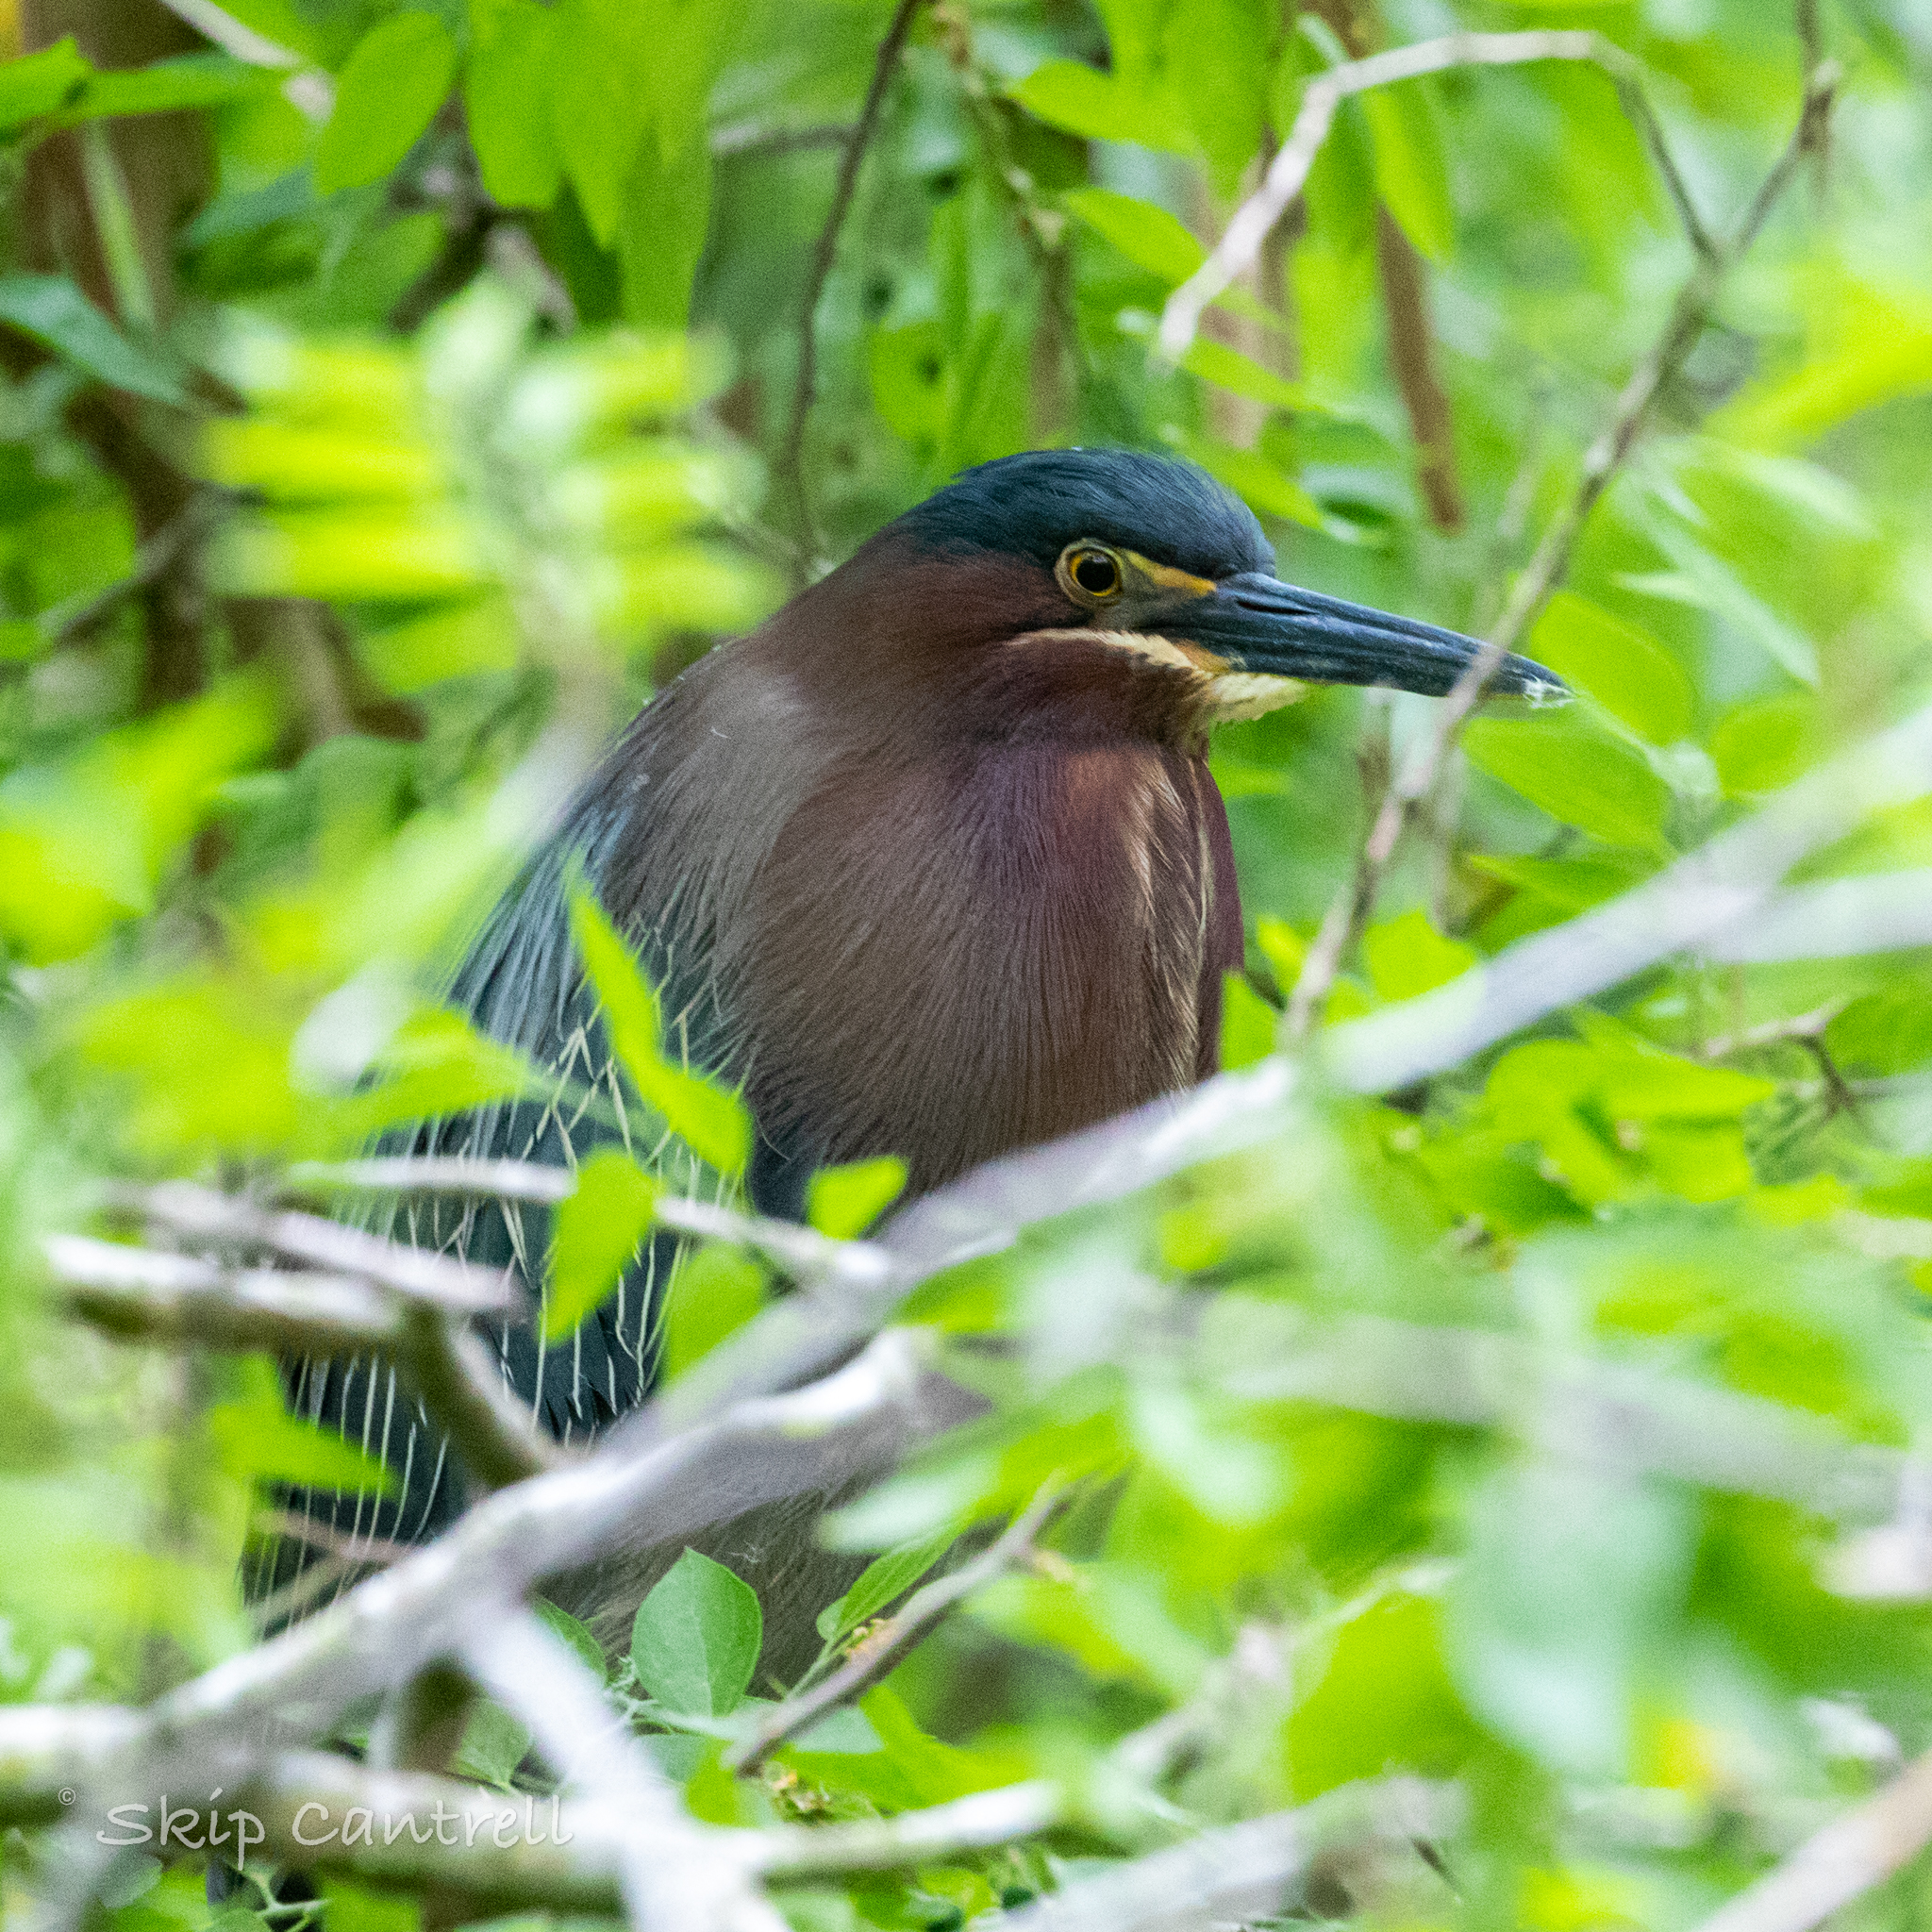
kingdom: Animalia
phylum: Chordata
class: Aves
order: Pelecaniformes
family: Ardeidae
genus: Butorides
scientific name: Butorides virescens
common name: Green heron
